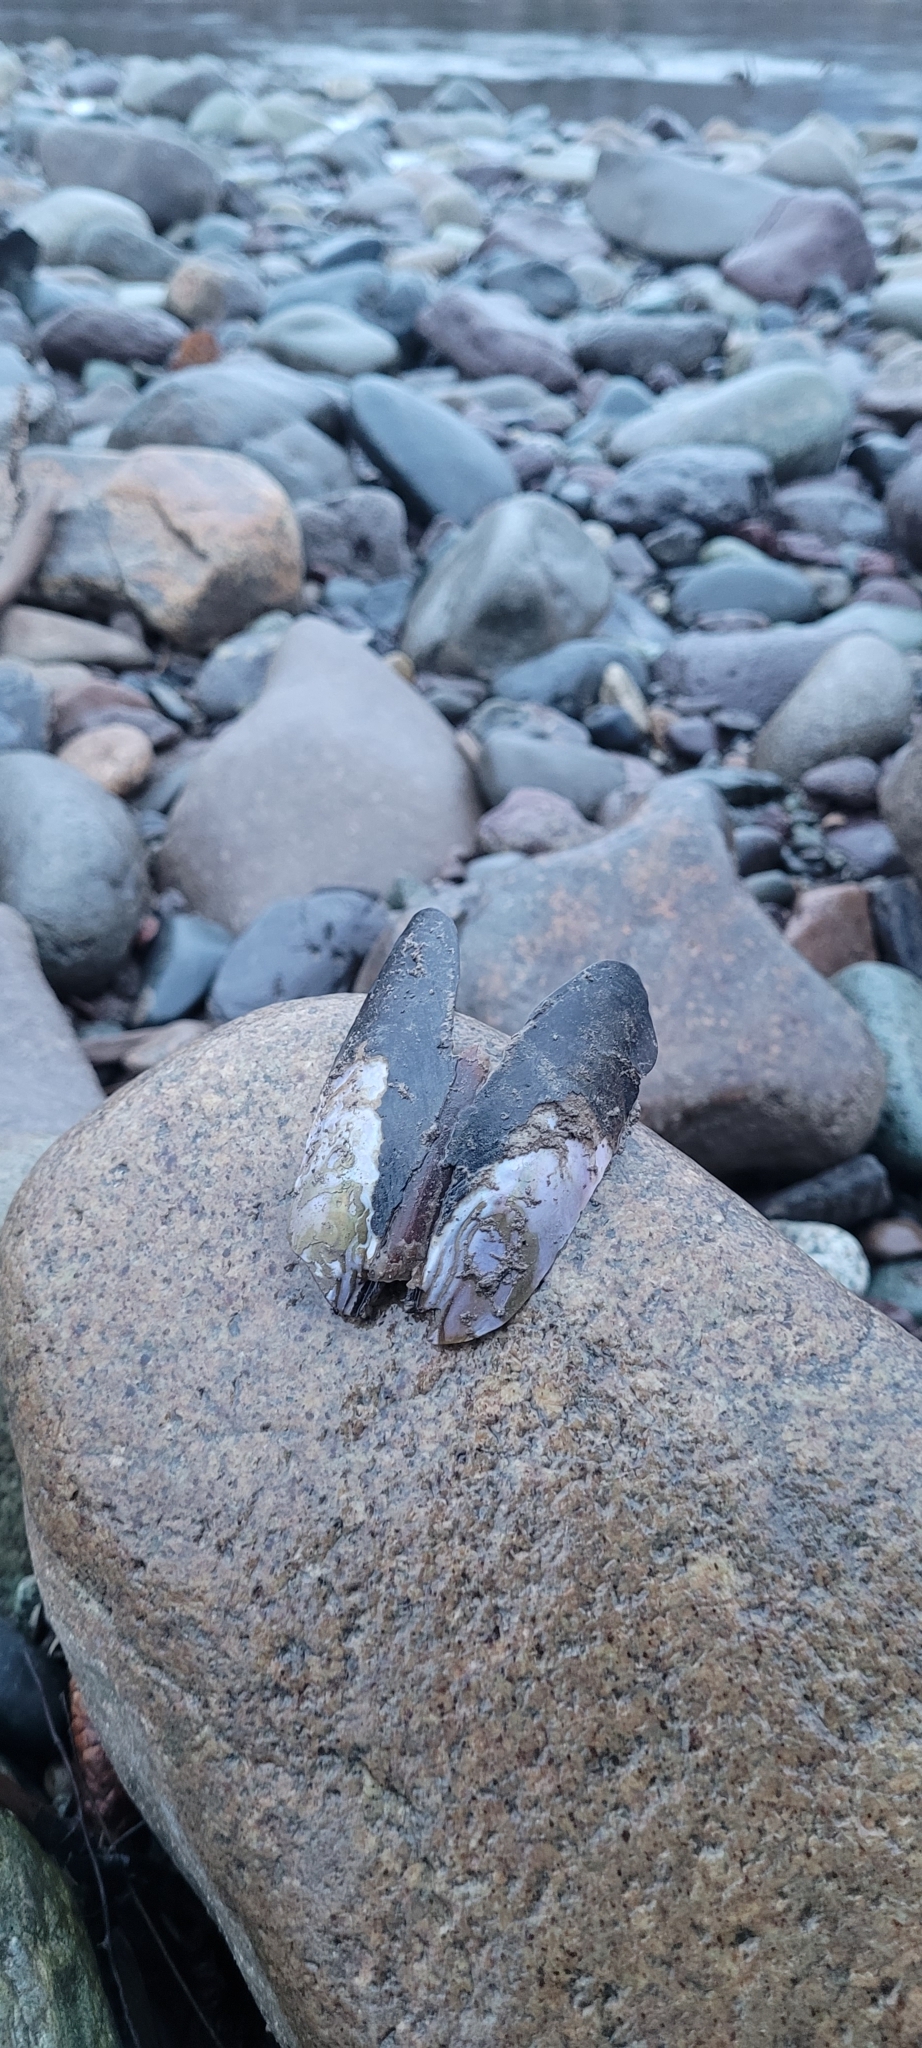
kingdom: Animalia
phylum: Mollusca
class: Bivalvia
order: Unionida
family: Margaritiferidae
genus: Margaritifera
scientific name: Margaritifera falcata
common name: Western pearlshell
